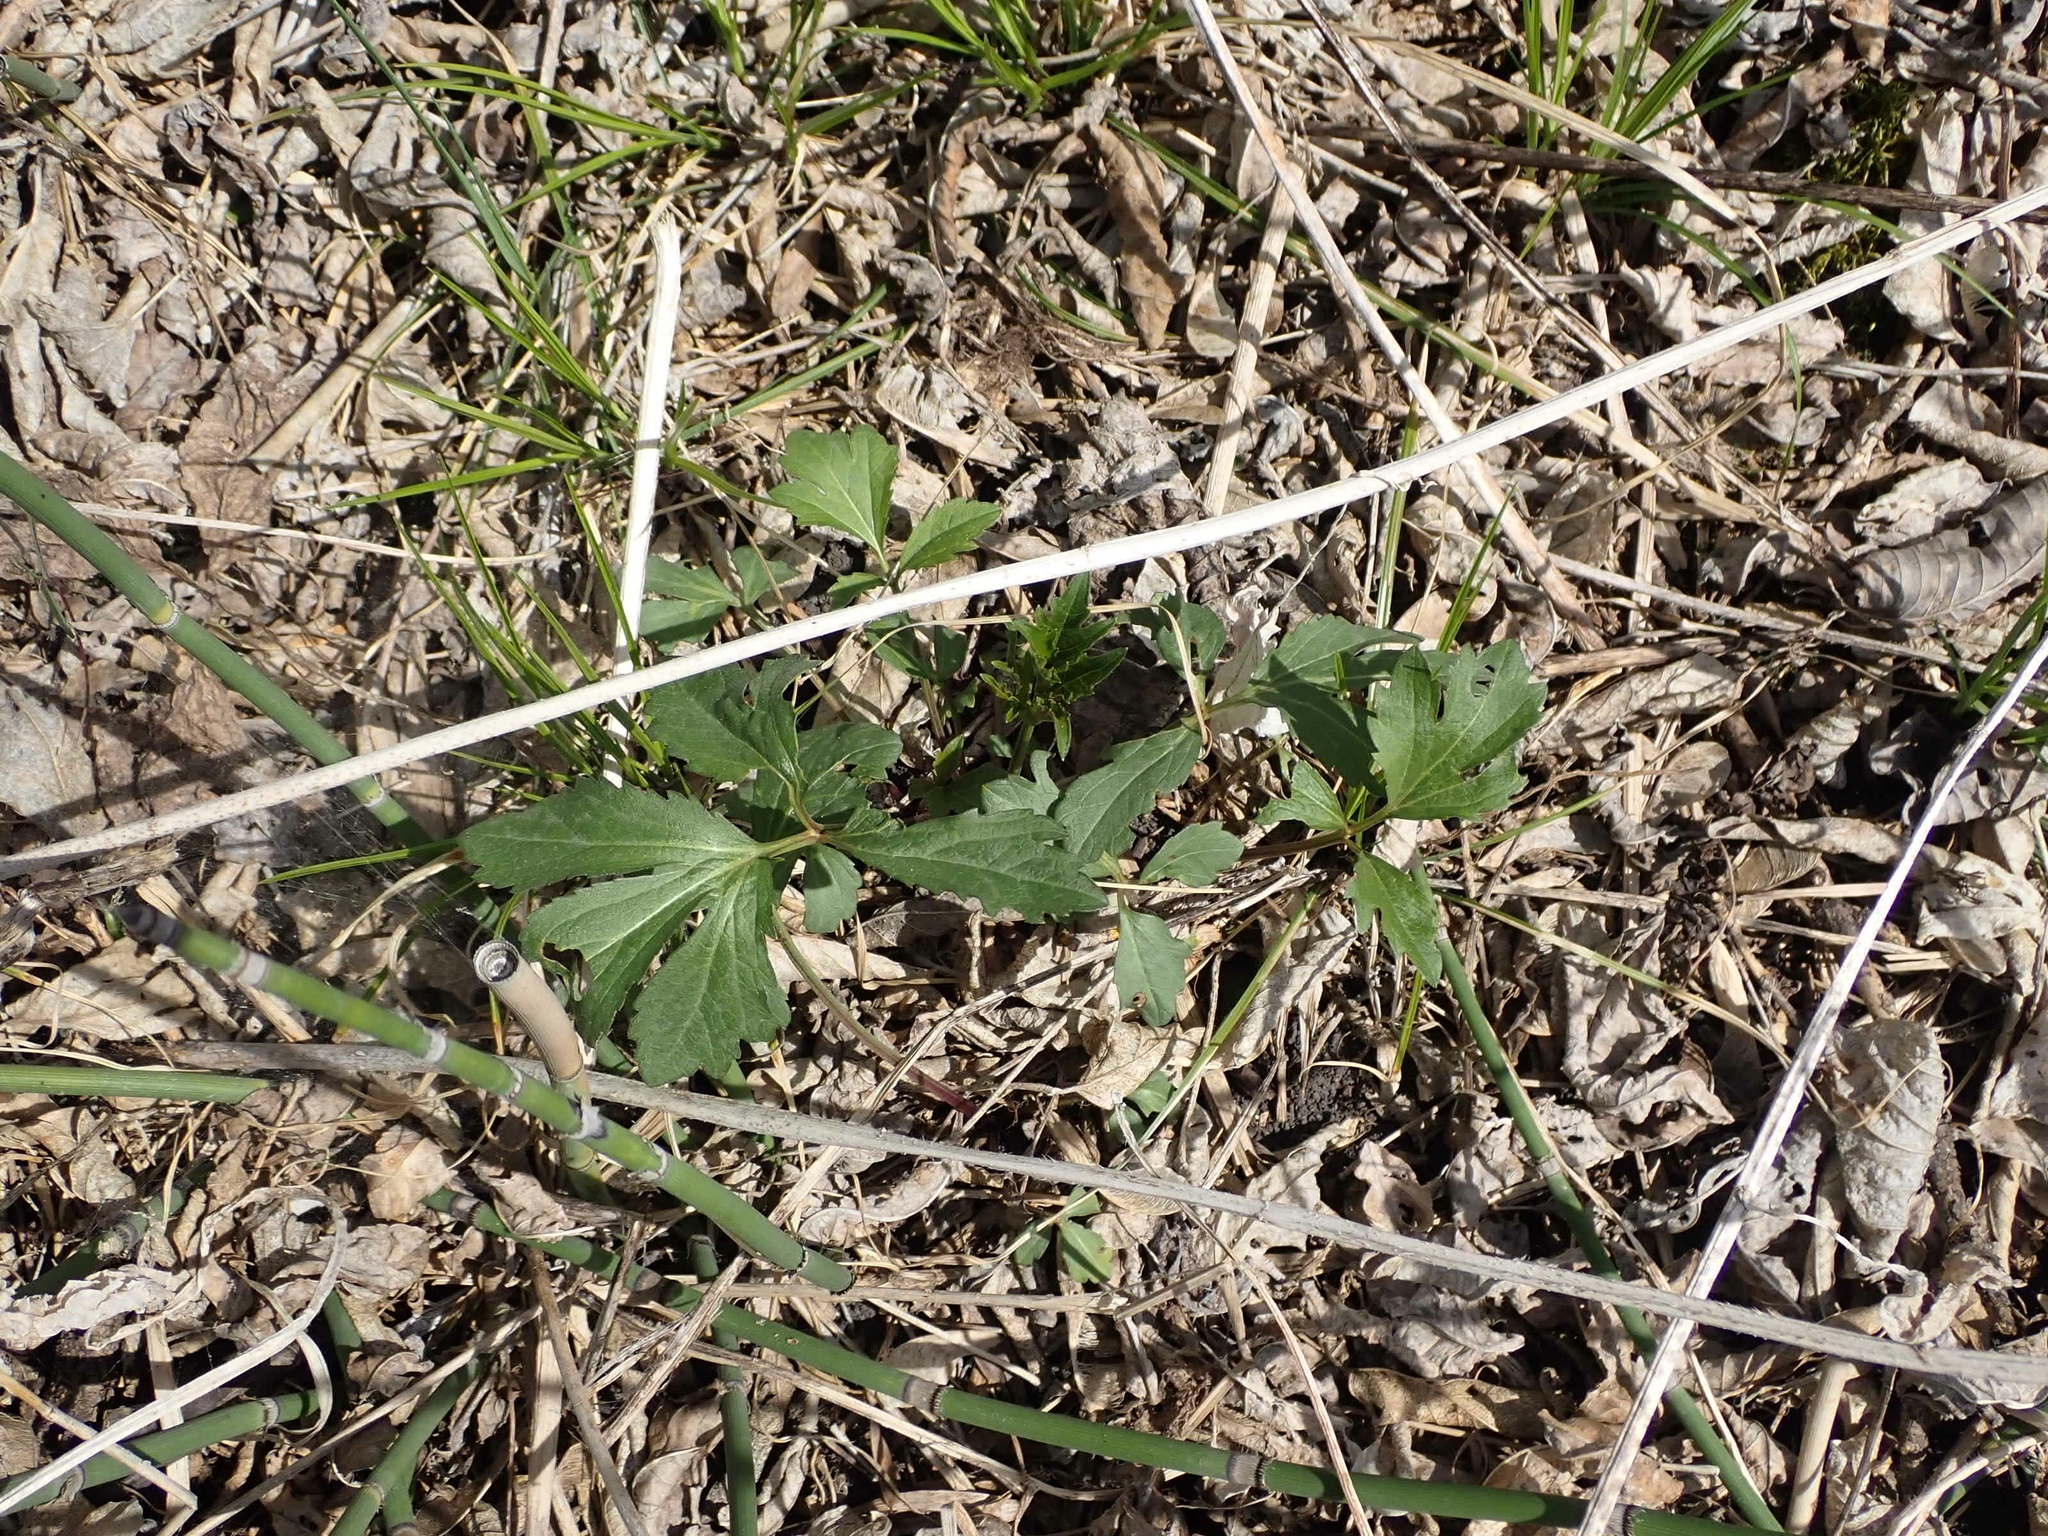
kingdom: Plantae
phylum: Tracheophyta
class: Magnoliopsida
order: Asterales
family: Asteraceae
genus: Rudbeckia
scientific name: Rudbeckia laciniata
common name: Coneflower
